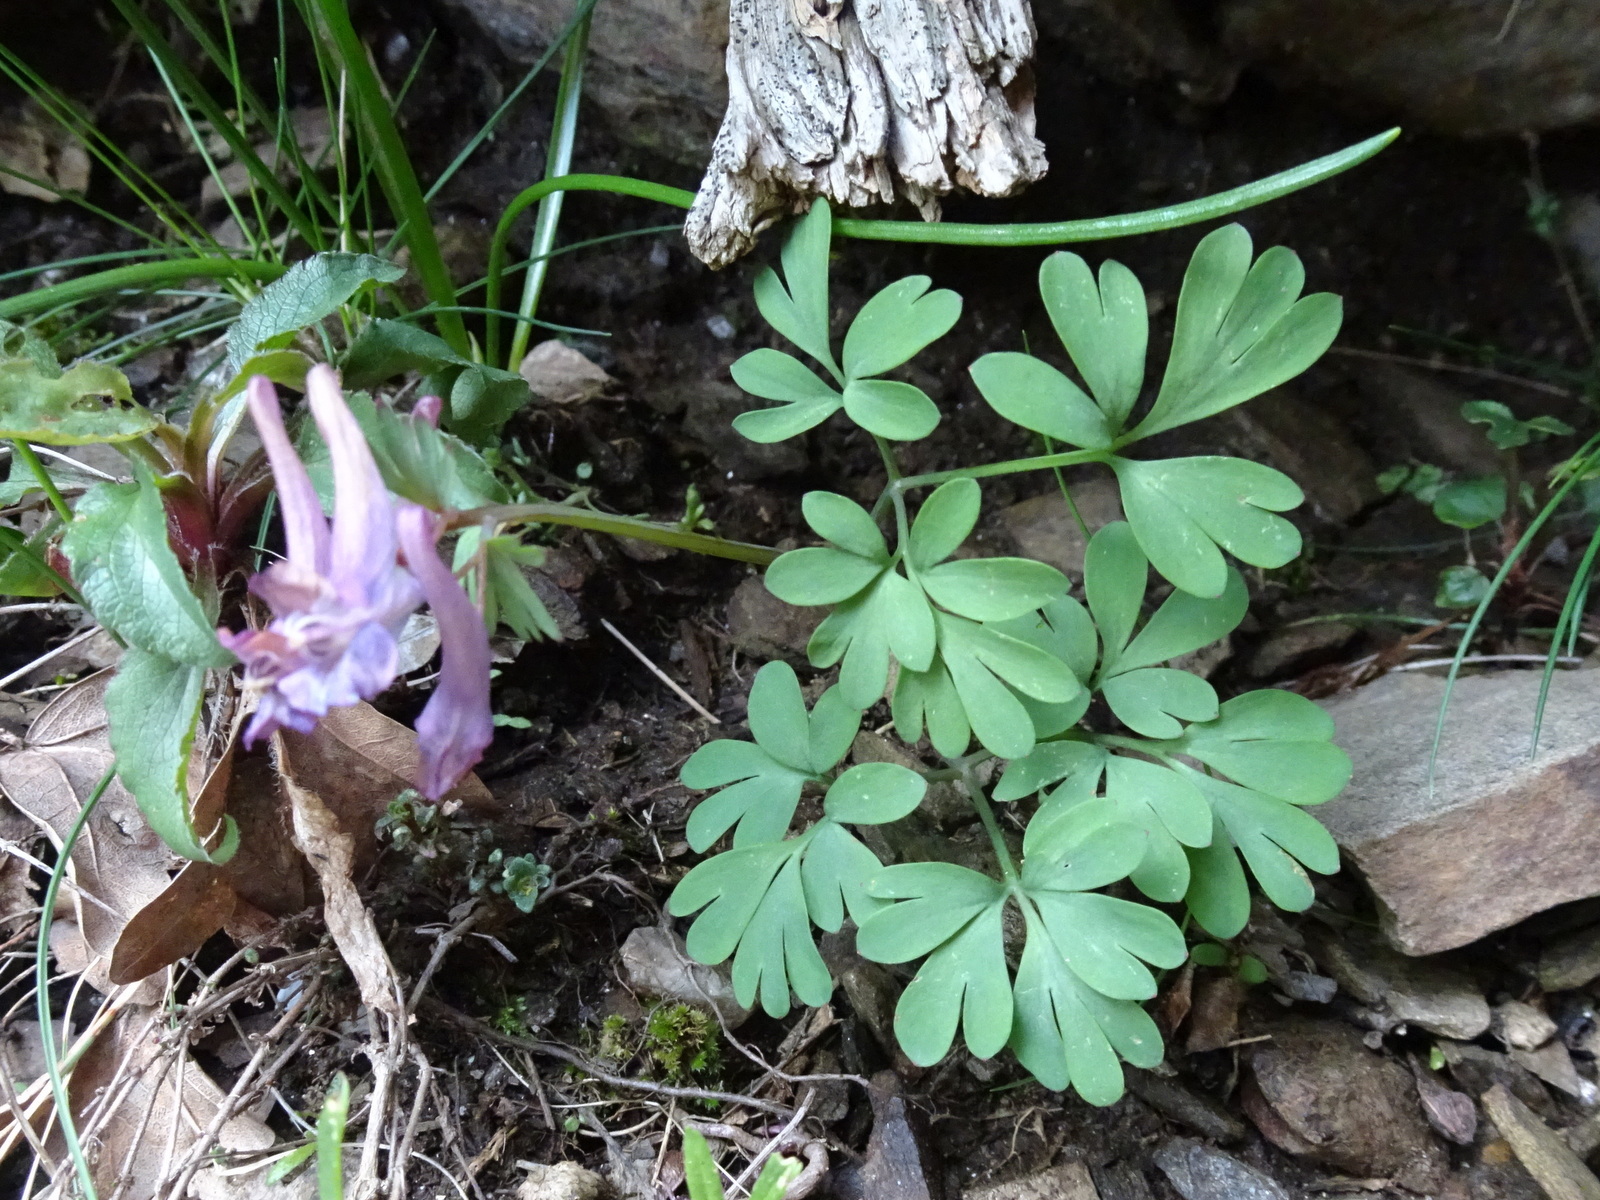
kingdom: Plantae
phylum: Tracheophyta
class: Magnoliopsida
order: Ranunculales
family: Papaveraceae
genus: Corydalis
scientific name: Corydalis solida
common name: Bird-in-a-bush
